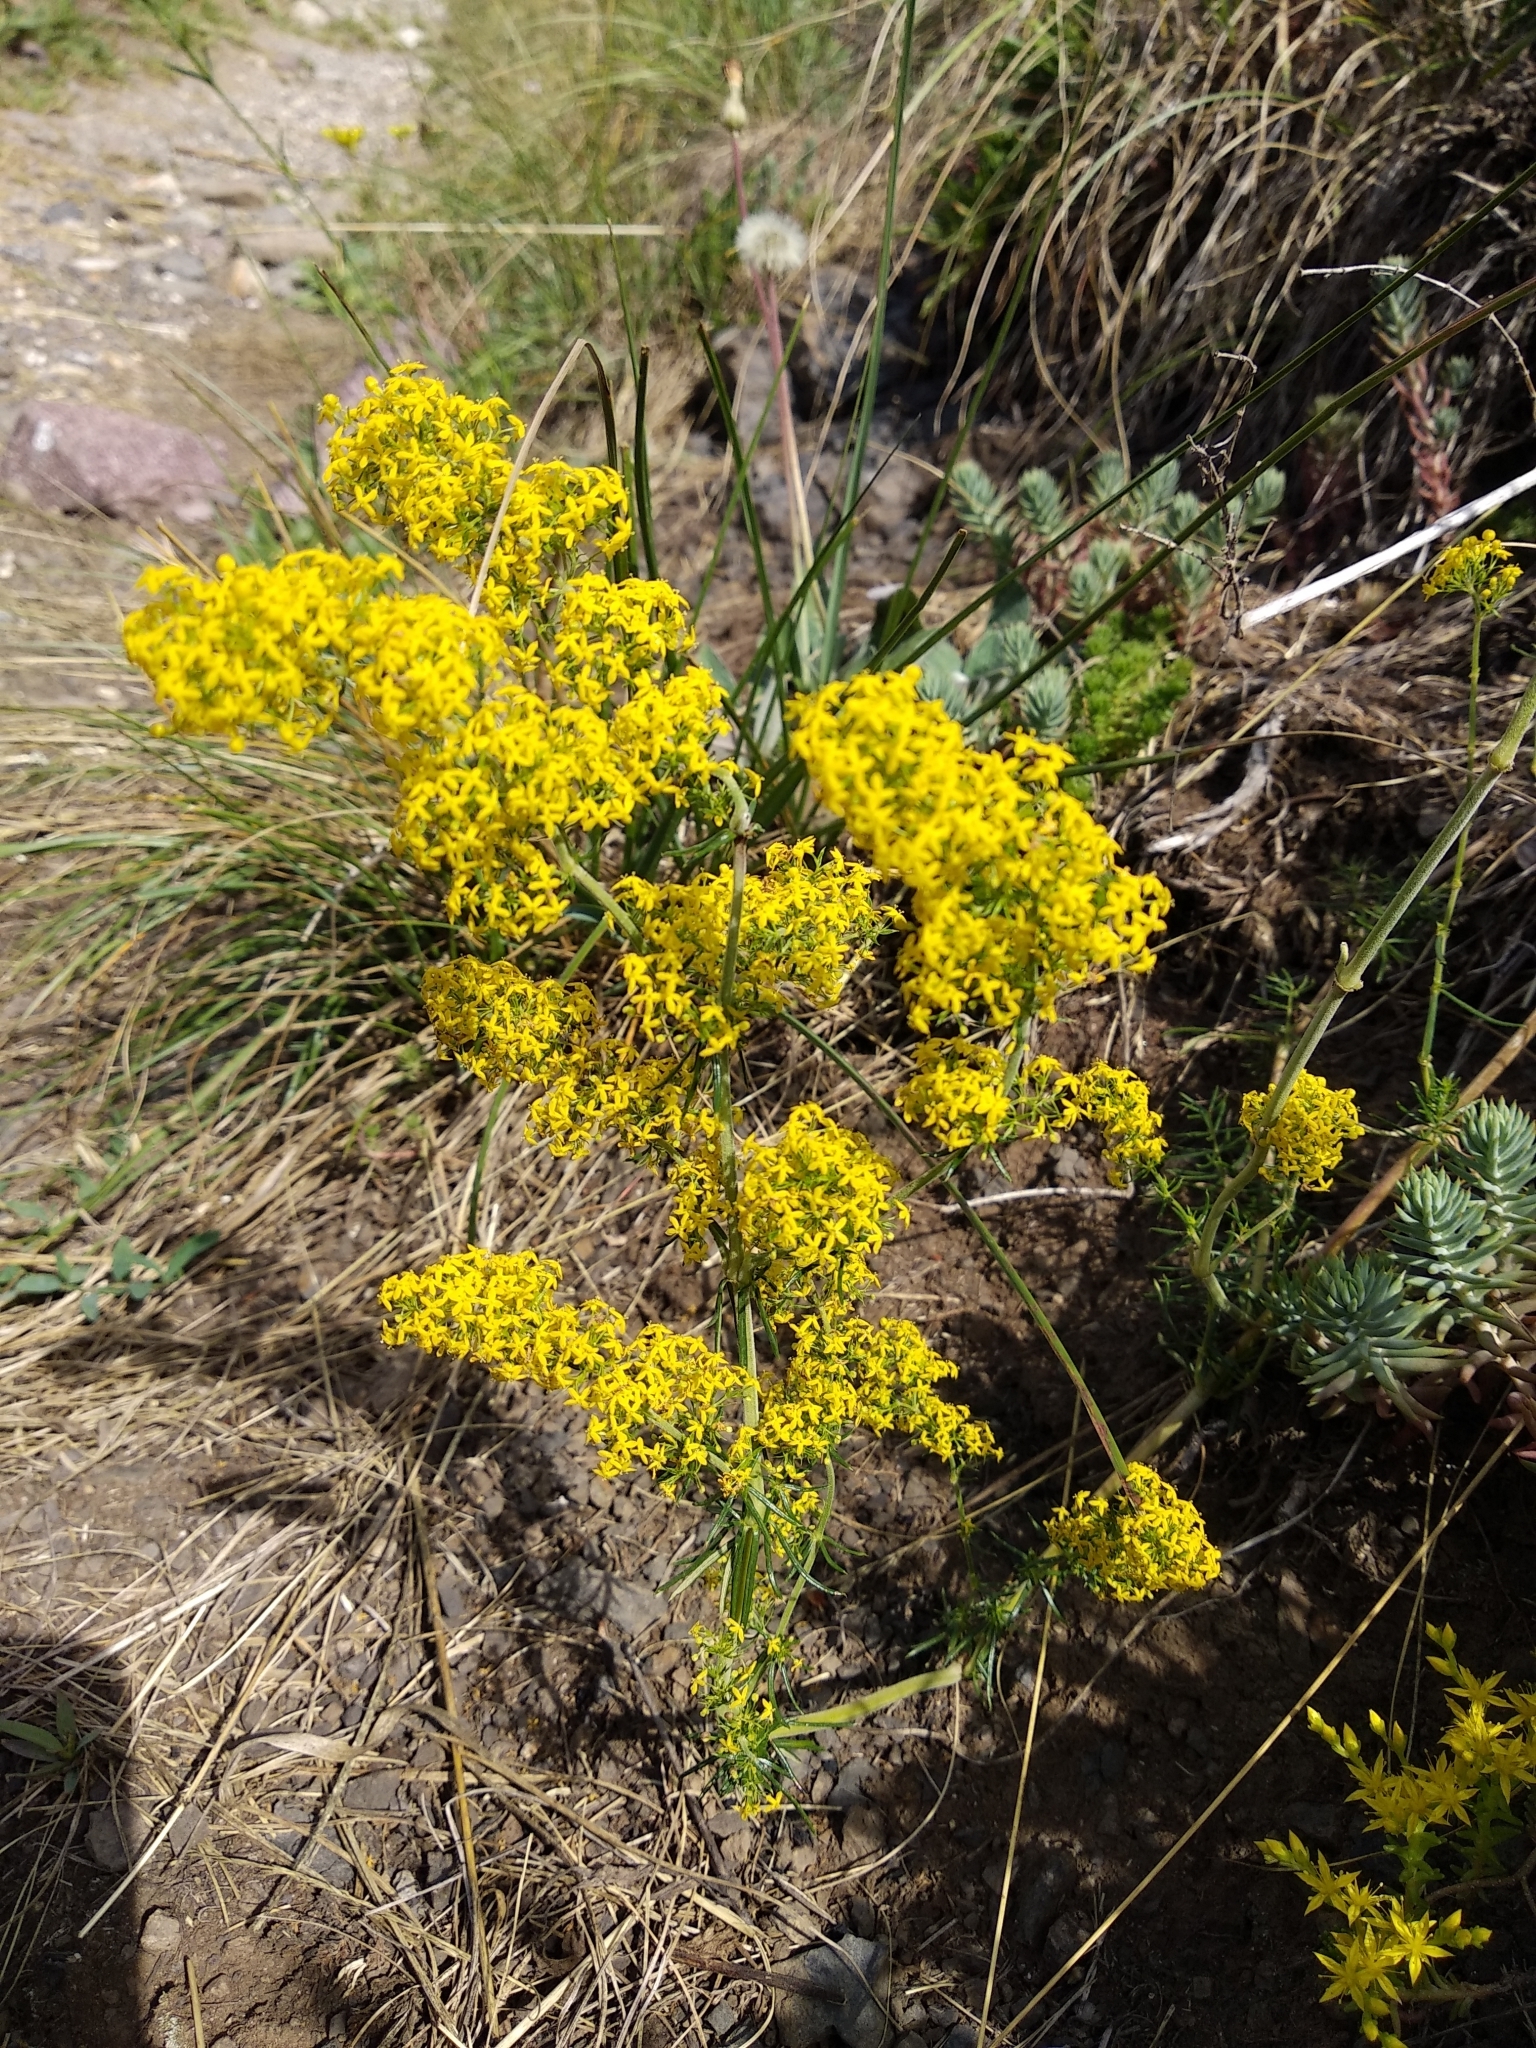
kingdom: Plantae
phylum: Tracheophyta
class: Magnoliopsida
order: Gentianales
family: Rubiaceae
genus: Galium
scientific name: Galium verum
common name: Lady's bedstraw
